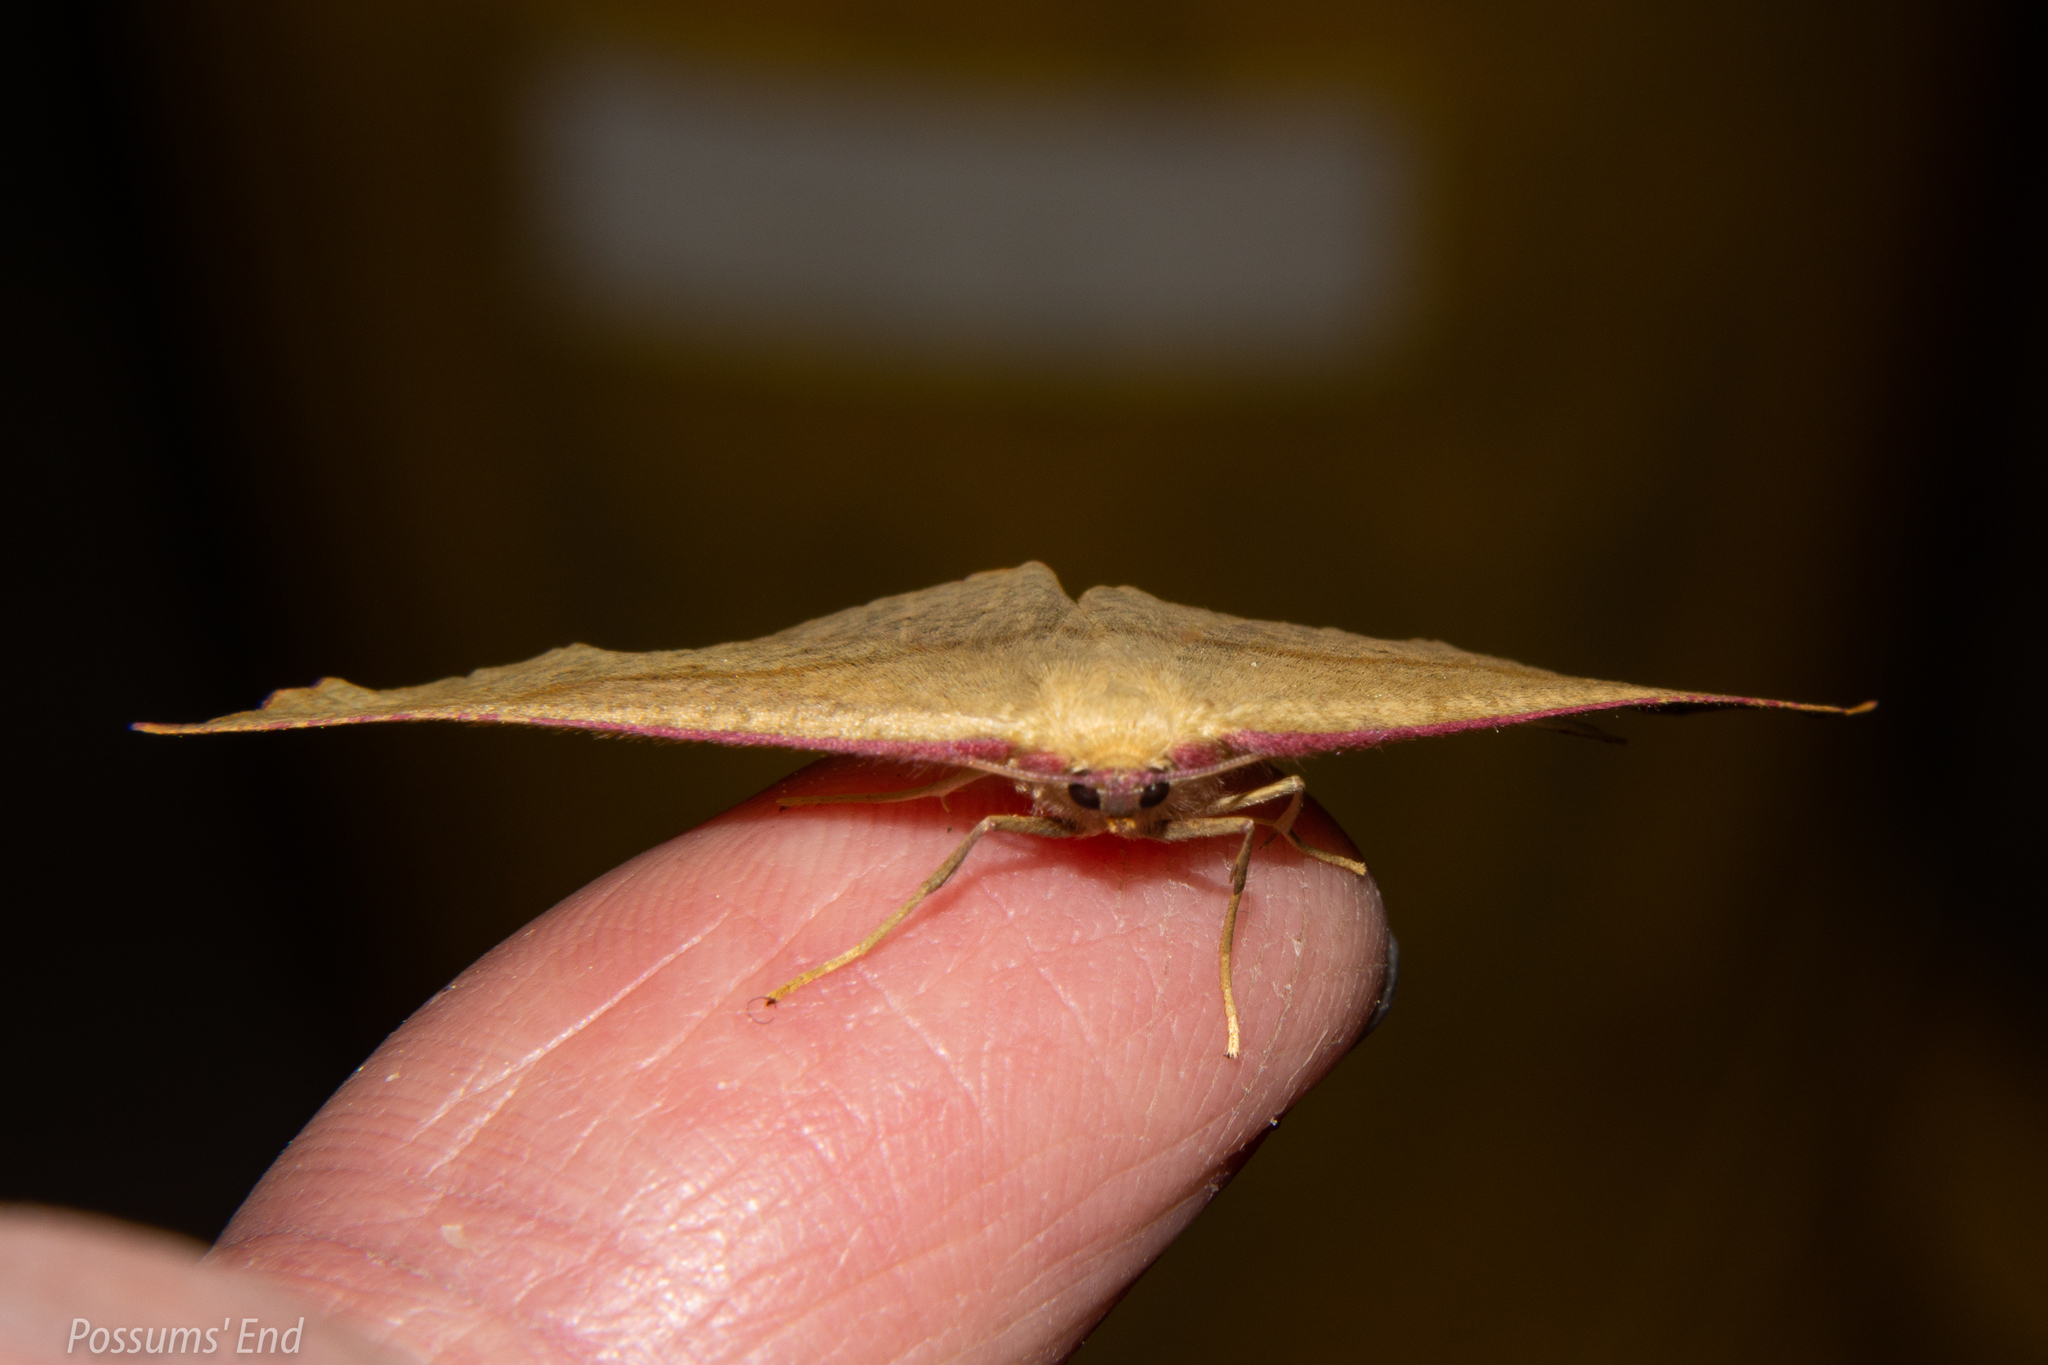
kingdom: Animalia
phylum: Arthropoda
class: Insecta
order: Lepidoptera
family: Geometridae
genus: Xyridacma
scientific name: Xyridacma alectoraria
